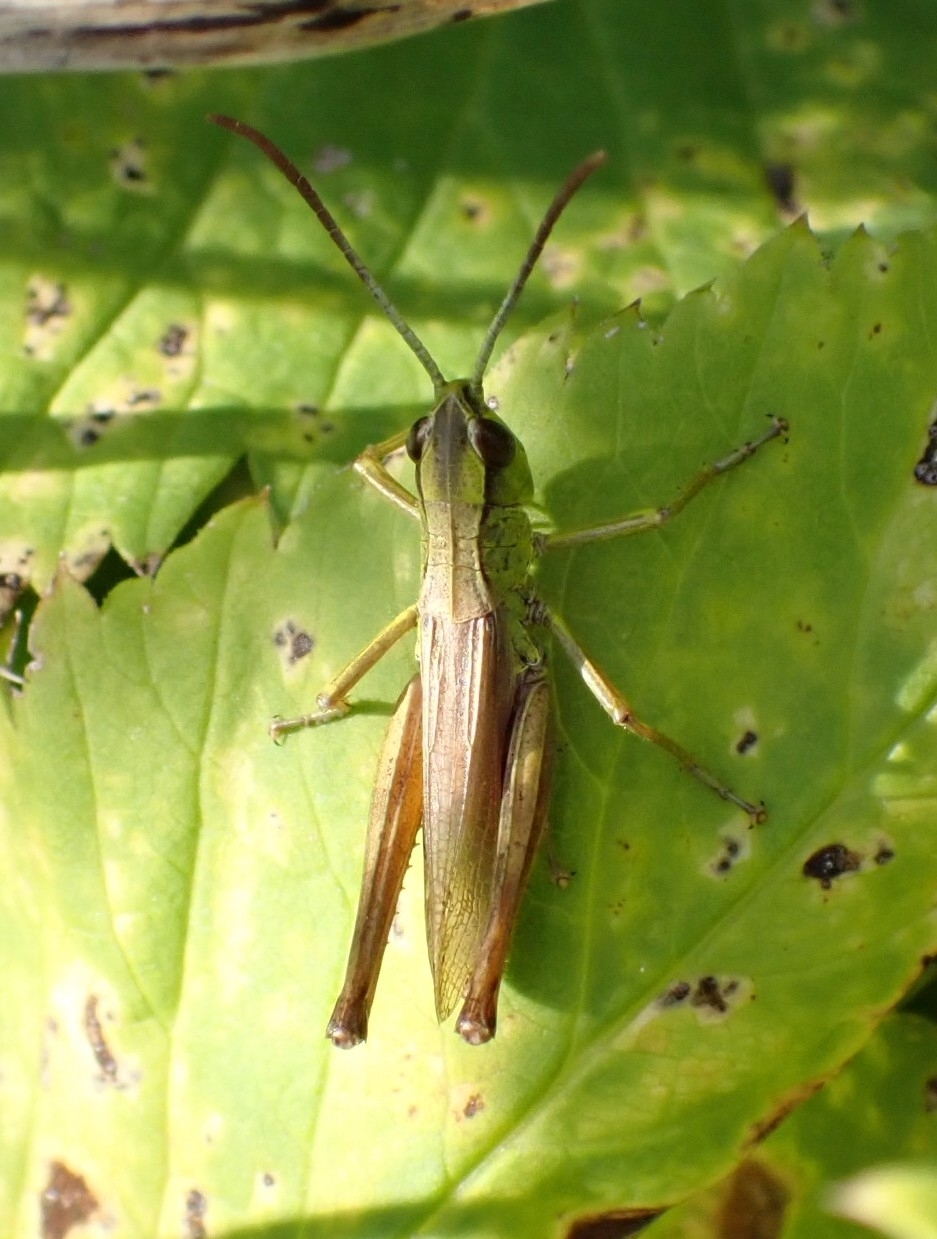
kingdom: Animalia
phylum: Arthropoda
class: Insecta
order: Orthoptera
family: Acrididae
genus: Pseudochorthippus
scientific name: Pseudochorthippus parallelus
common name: Meadow grasshopper
